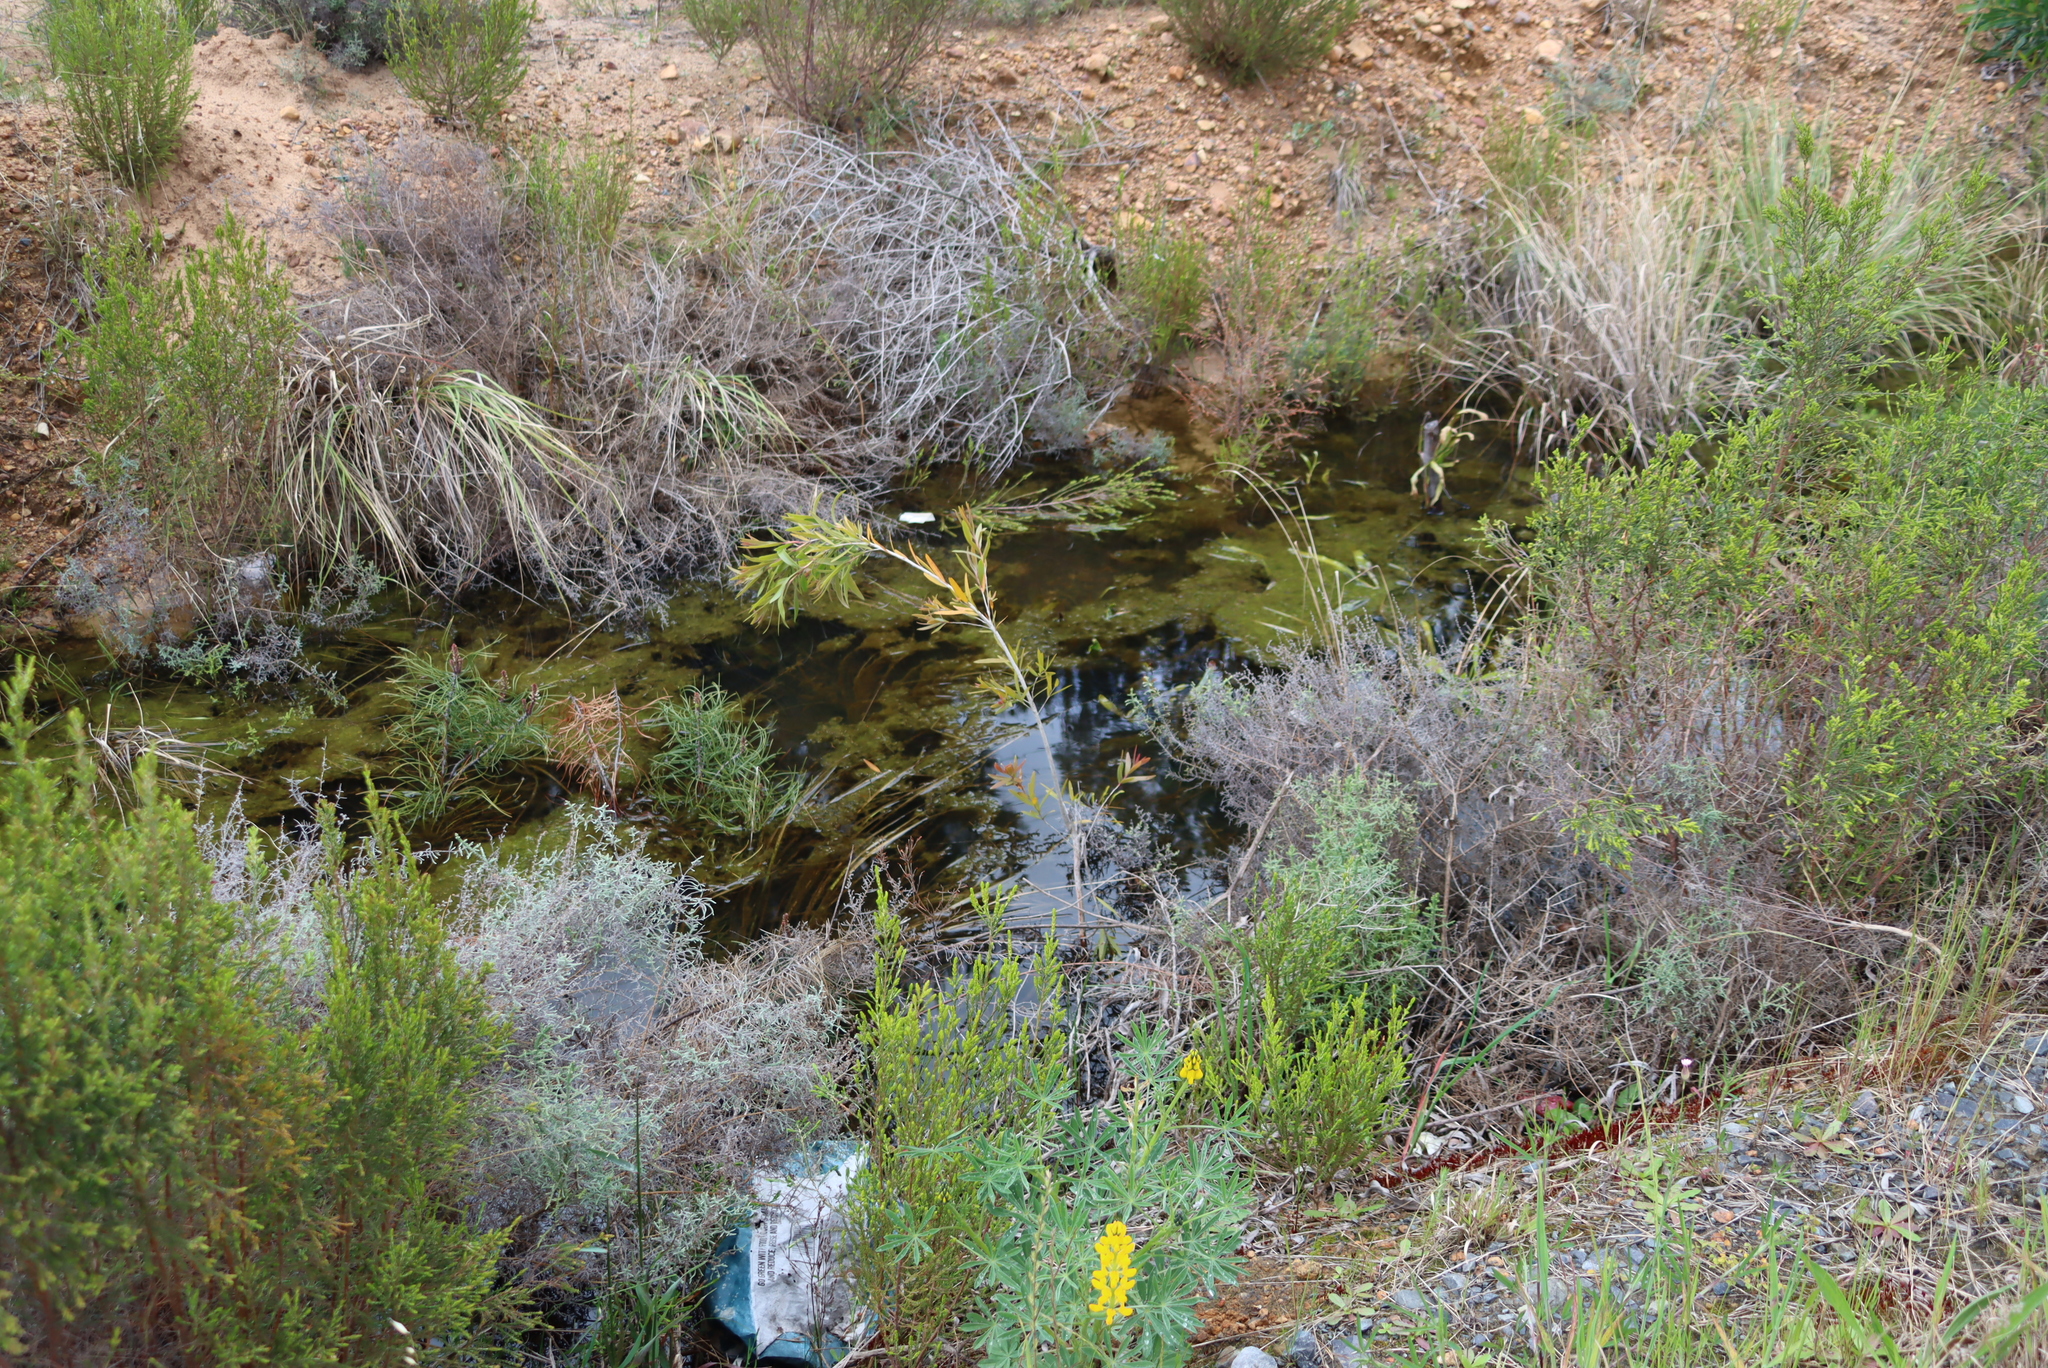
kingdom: Plantae
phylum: Tracheophyta
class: Magnoliopsida
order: Myrtales
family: Myrtaceae
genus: Callistemon
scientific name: Callistemon viminalis
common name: Drooping bottlebrush
